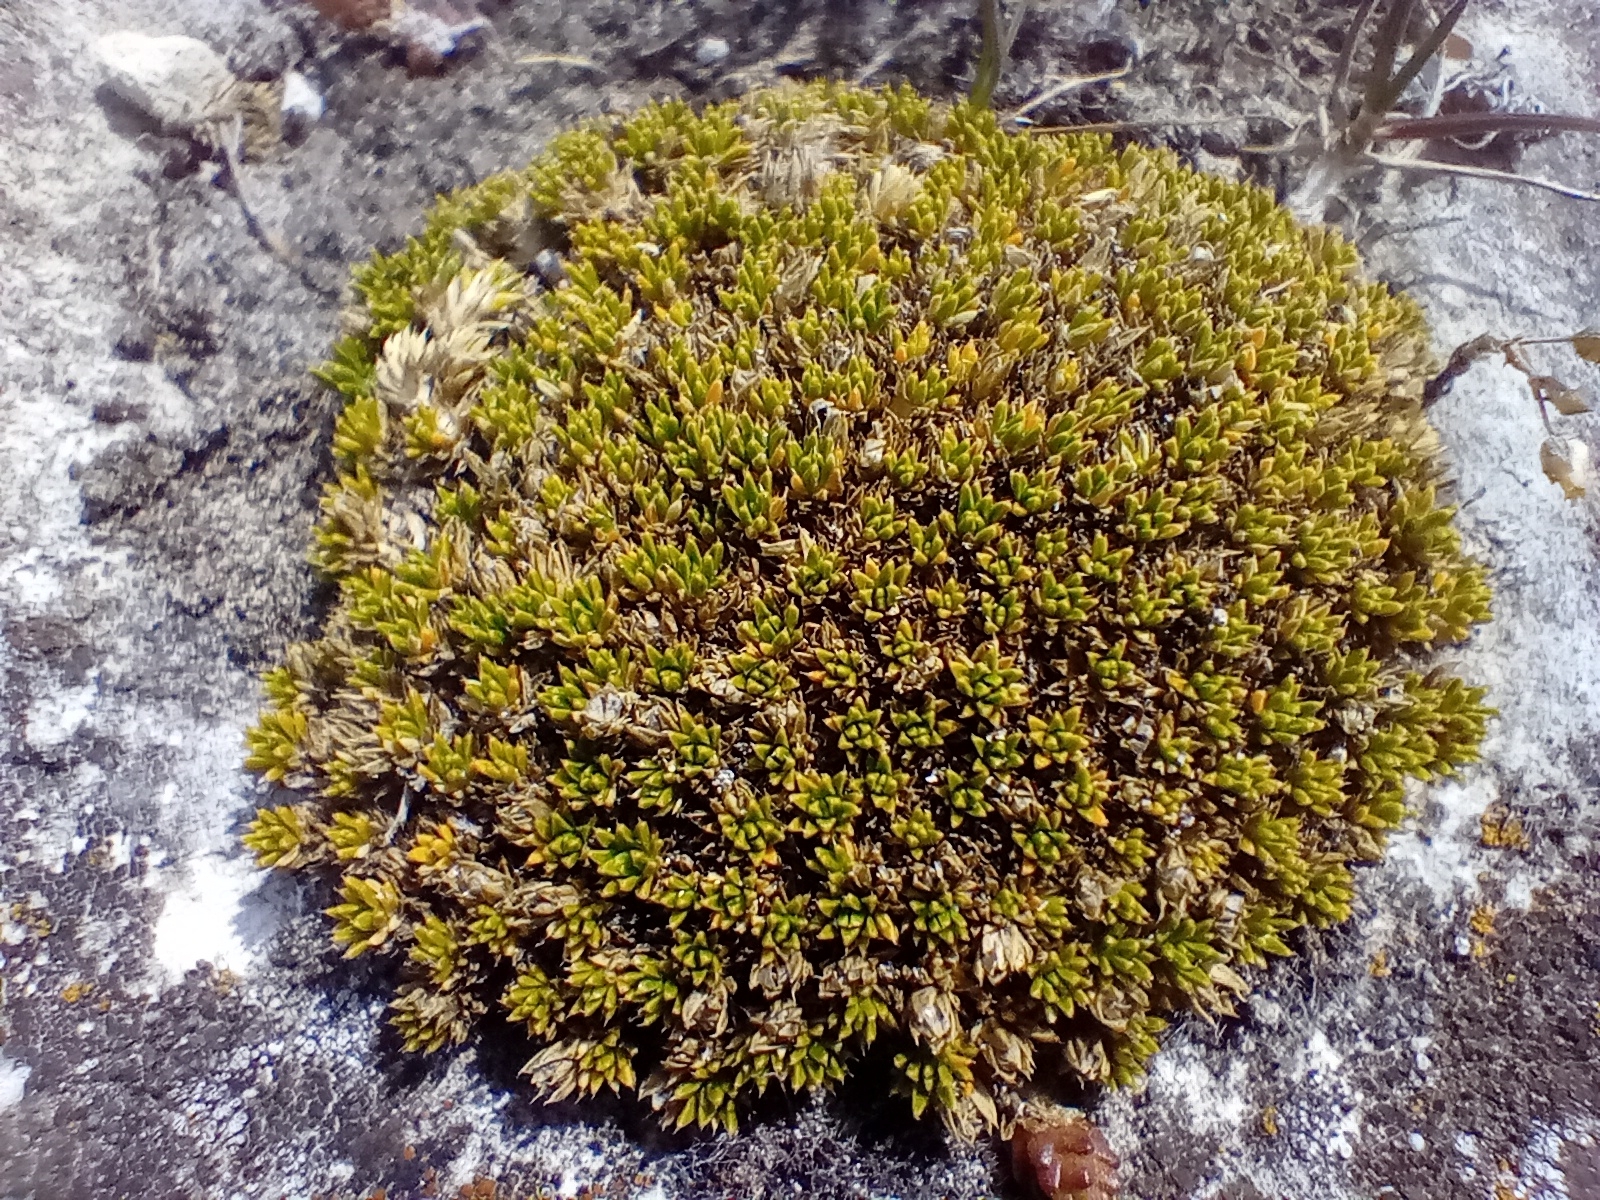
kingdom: Plantae
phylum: Tracheophyta
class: Magnoliopsida
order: Caryophyllales
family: Caryophyllaceae
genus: Colobanthus
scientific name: Colobanthus brevisepalus
